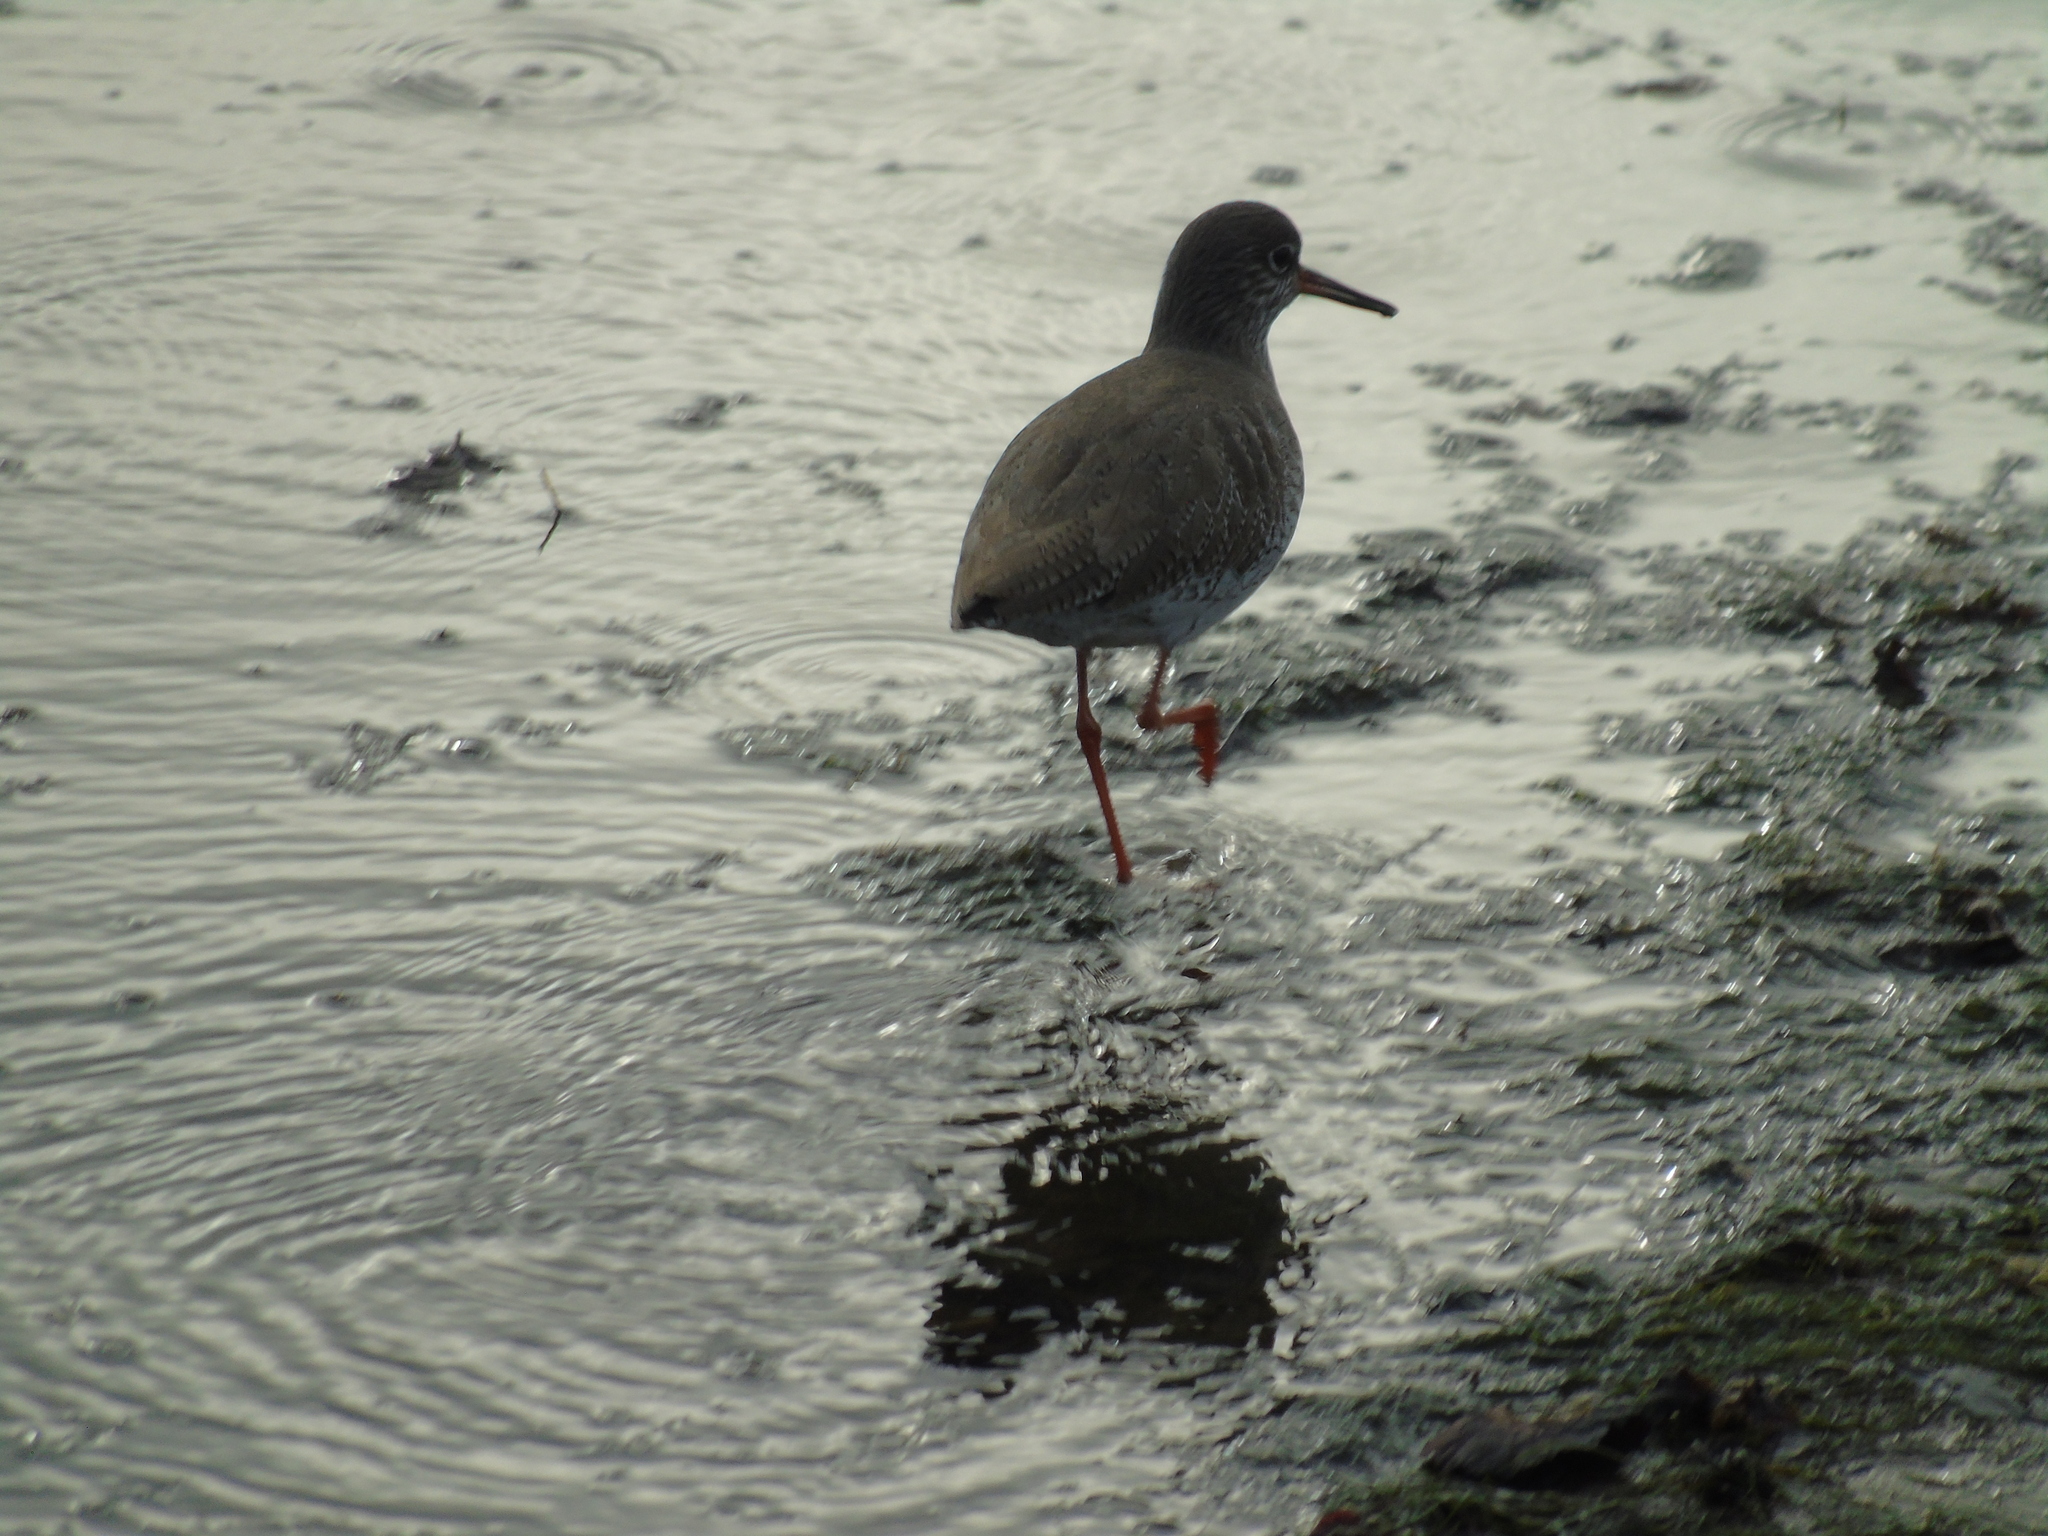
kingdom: Animalia
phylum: Chordata
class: Aves
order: Charadriiformes
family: Scolopacidae
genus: Tringa
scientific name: Tringa totanus
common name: Common redshank
